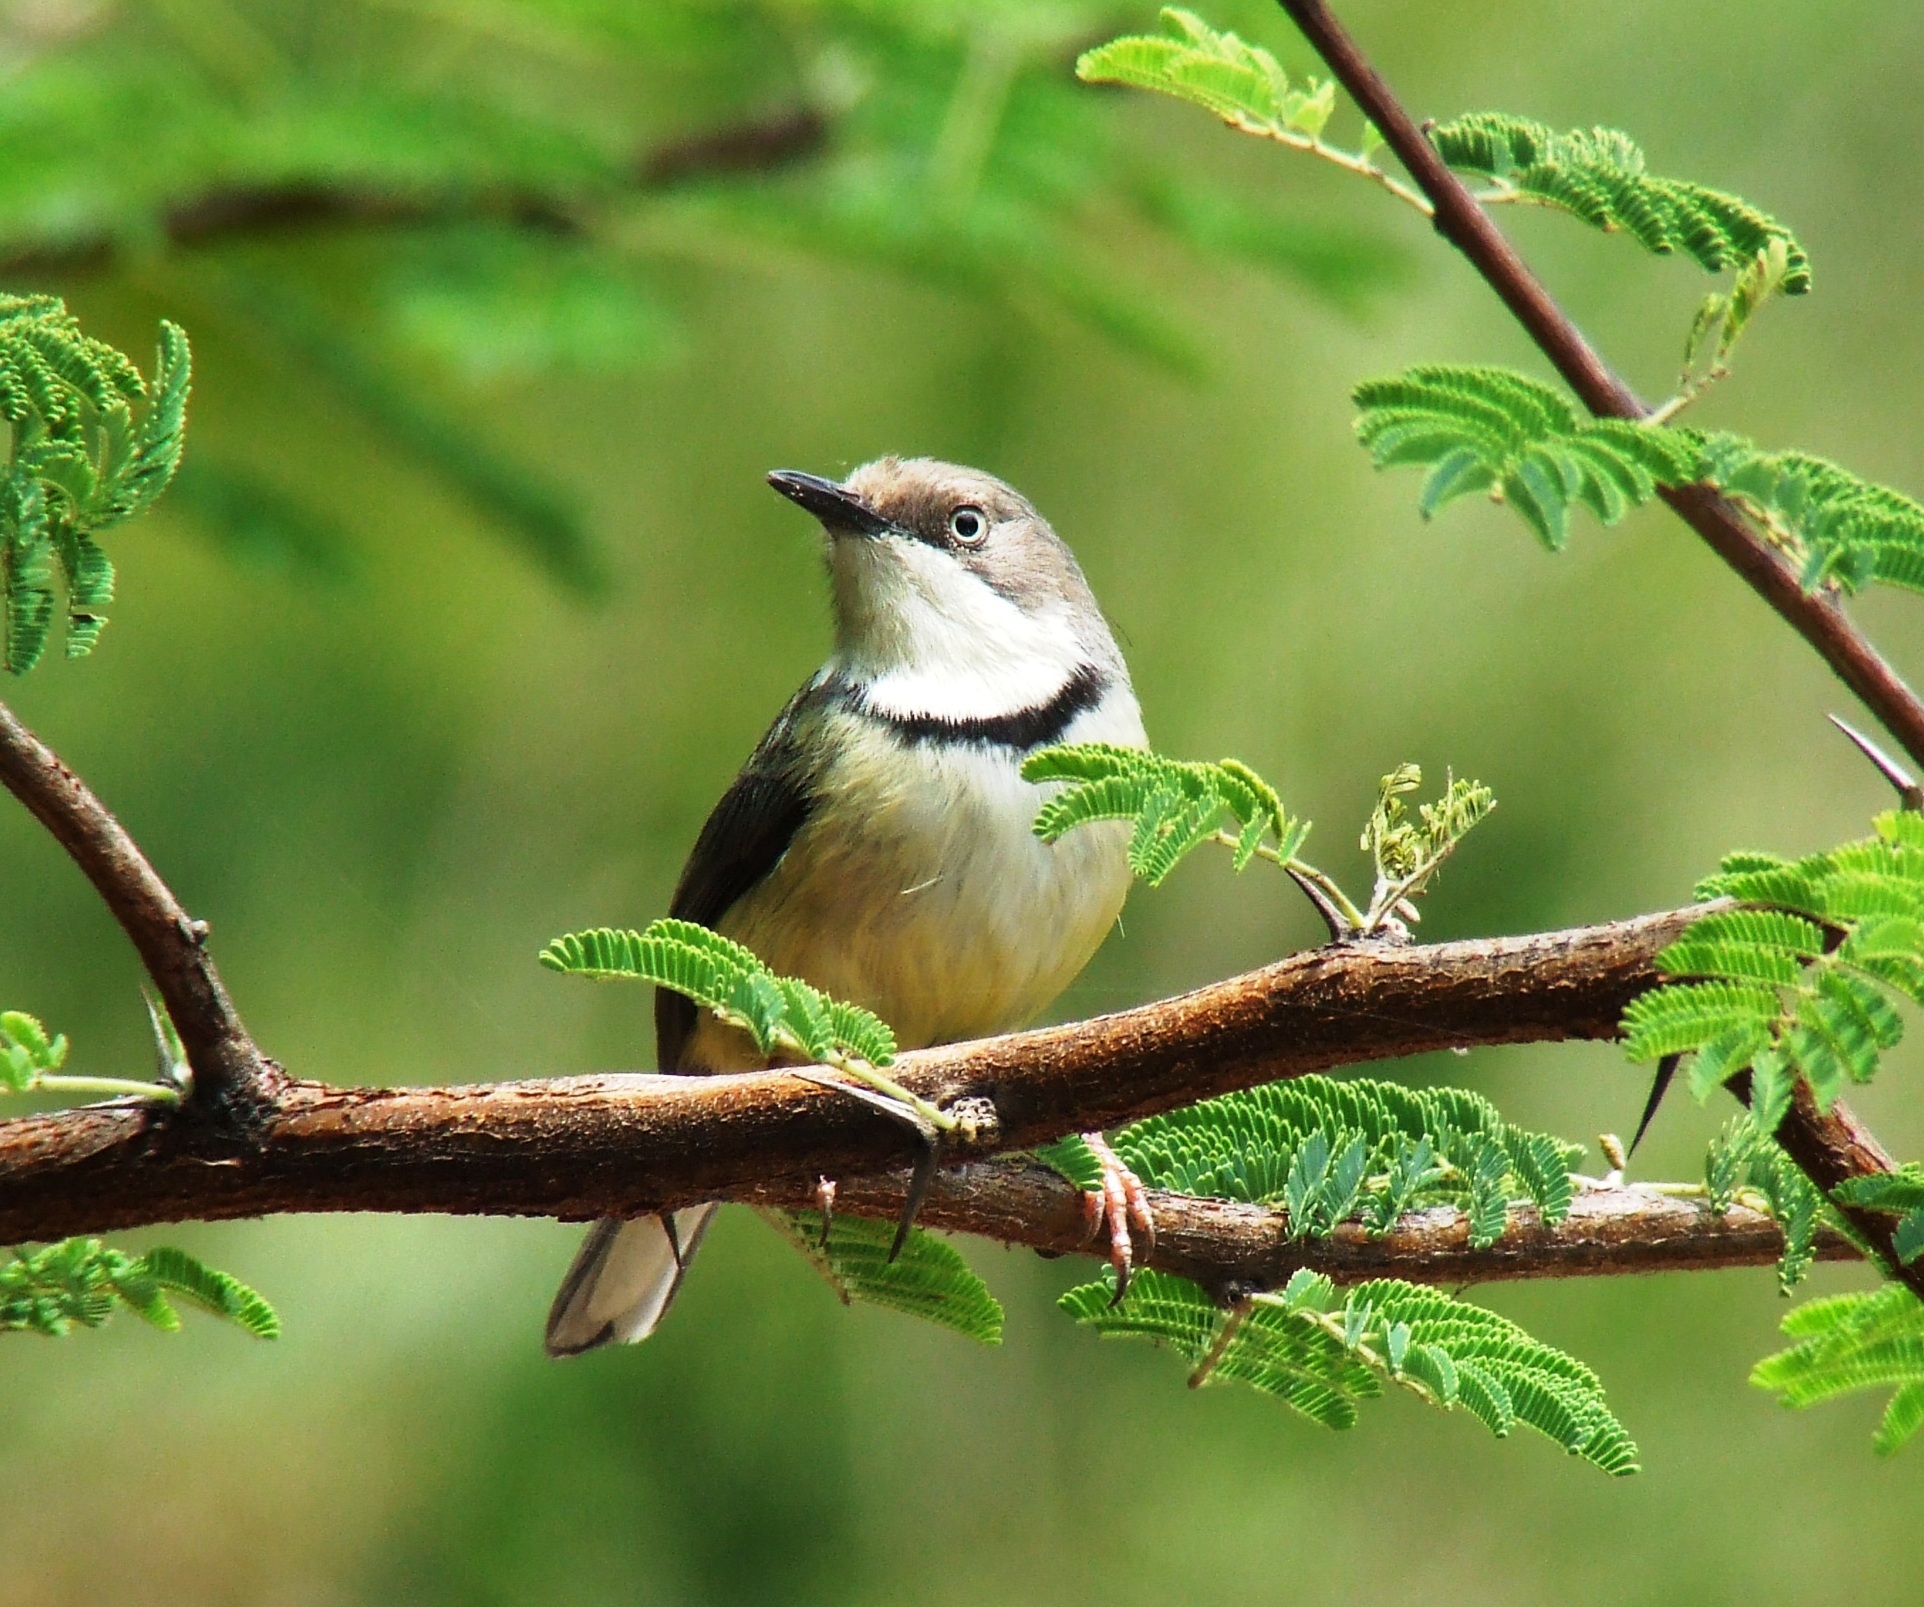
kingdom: Animalia
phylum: Chordata
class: Aves
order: Passeriformes
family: Cisticolidae
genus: Apalis
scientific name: Apalis thoracica
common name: Bar-throated apalis
